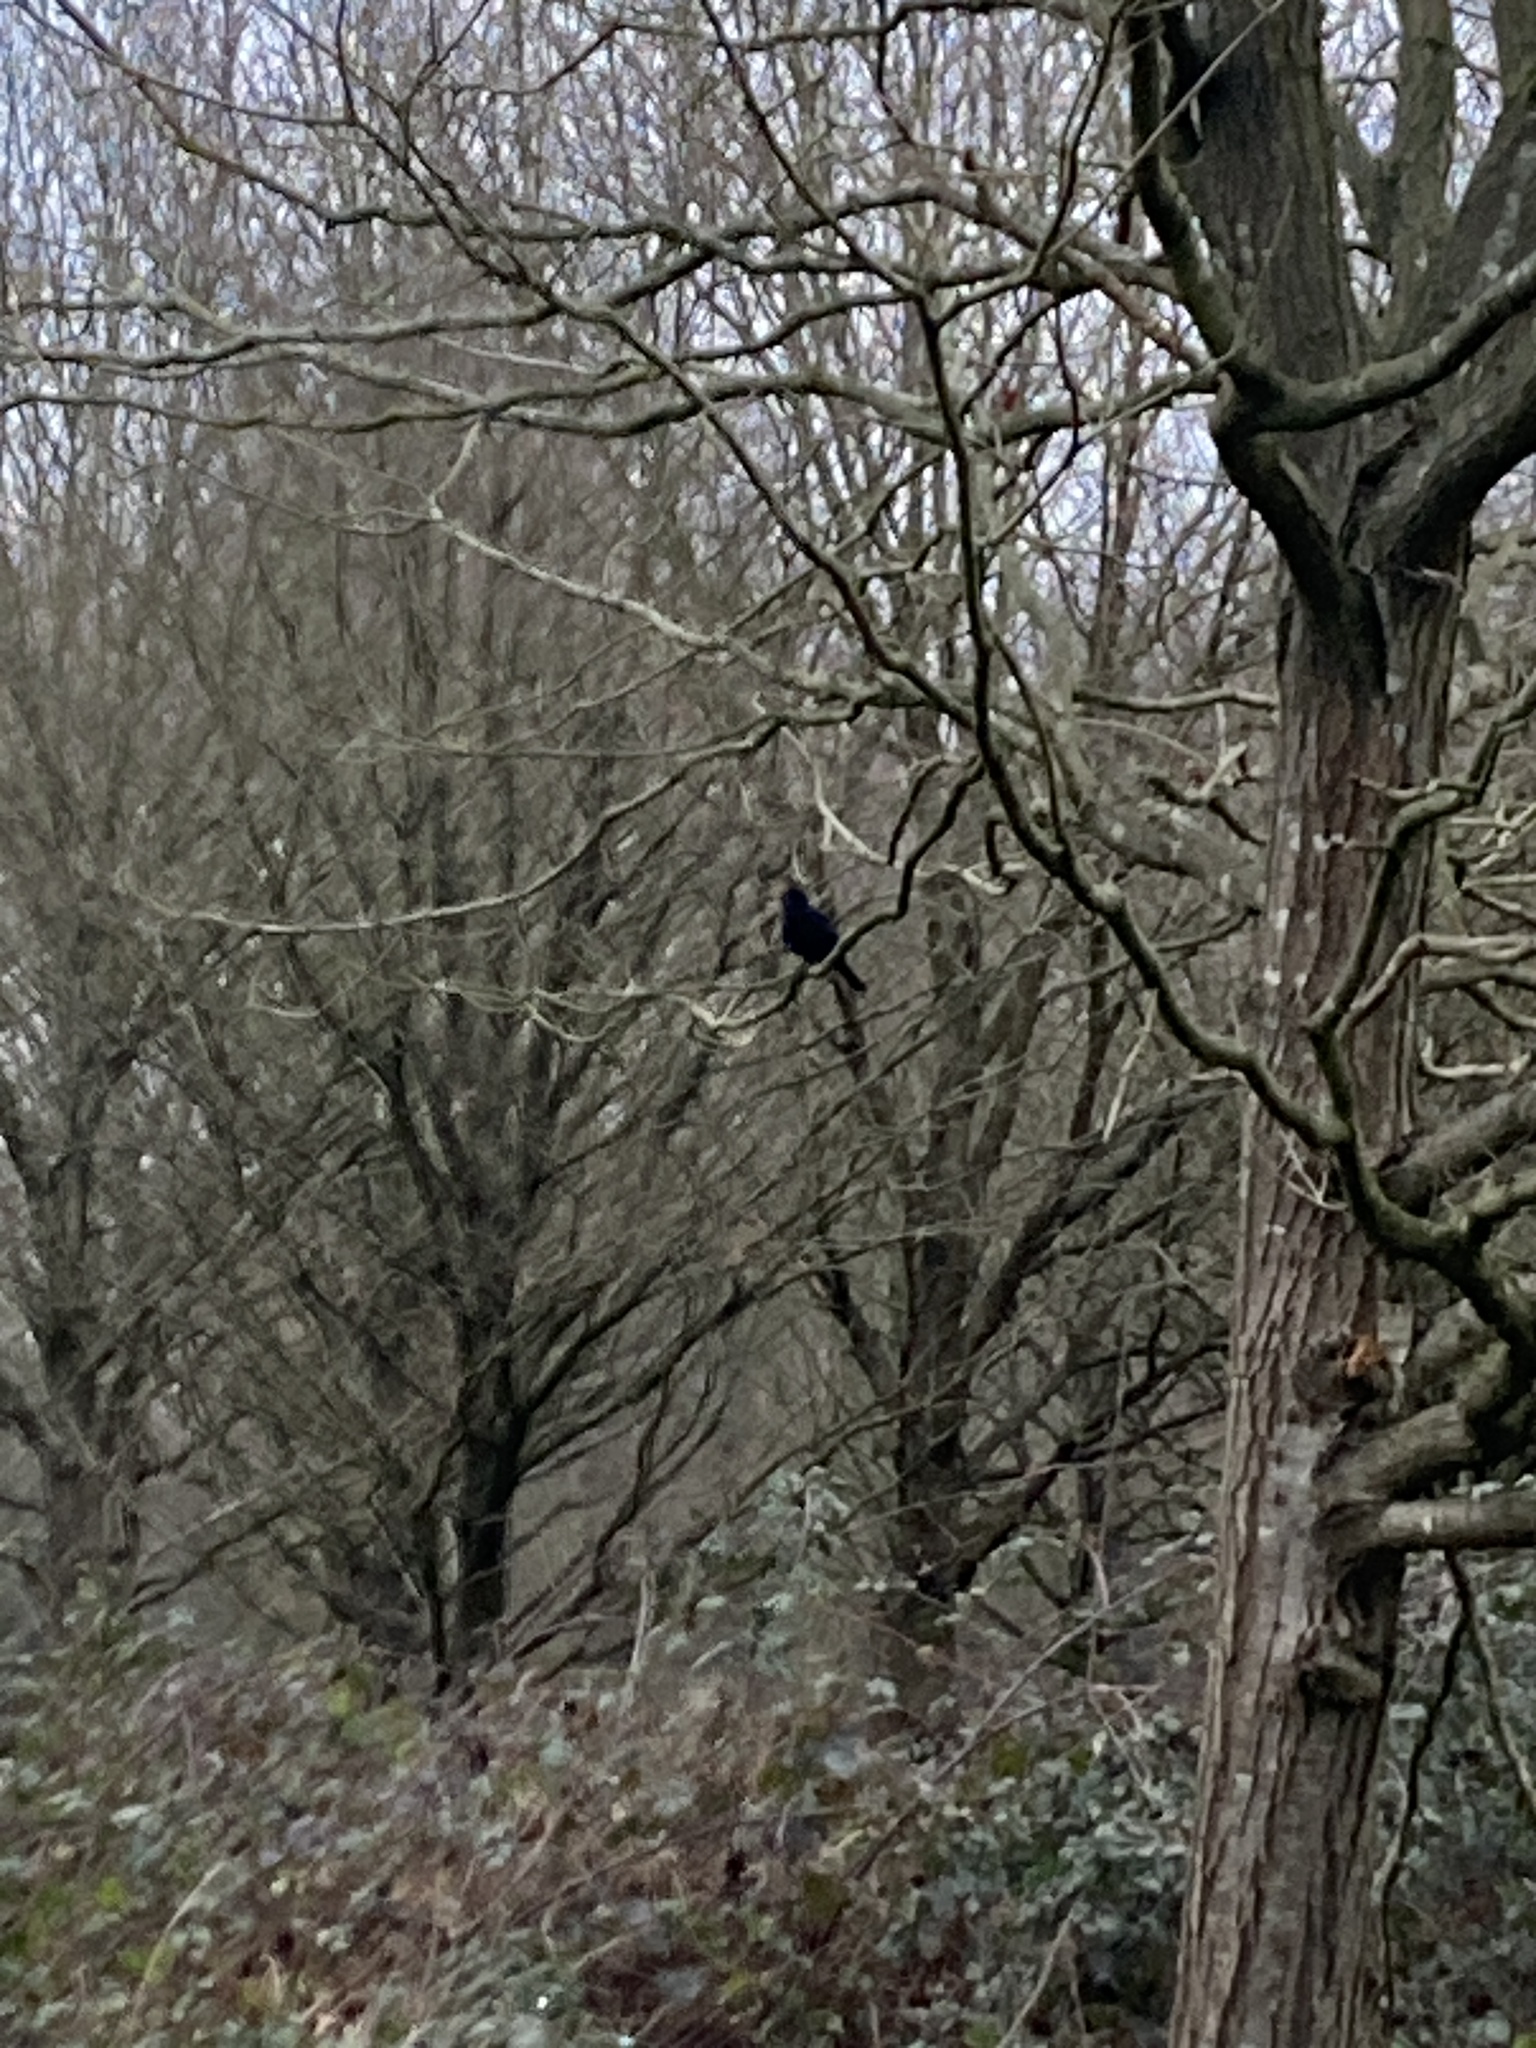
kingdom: Animalia
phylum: Chordata
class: Aves
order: Passeriformes
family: Turdidae
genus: Turdus
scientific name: Turdus merula
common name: Common blackbird
